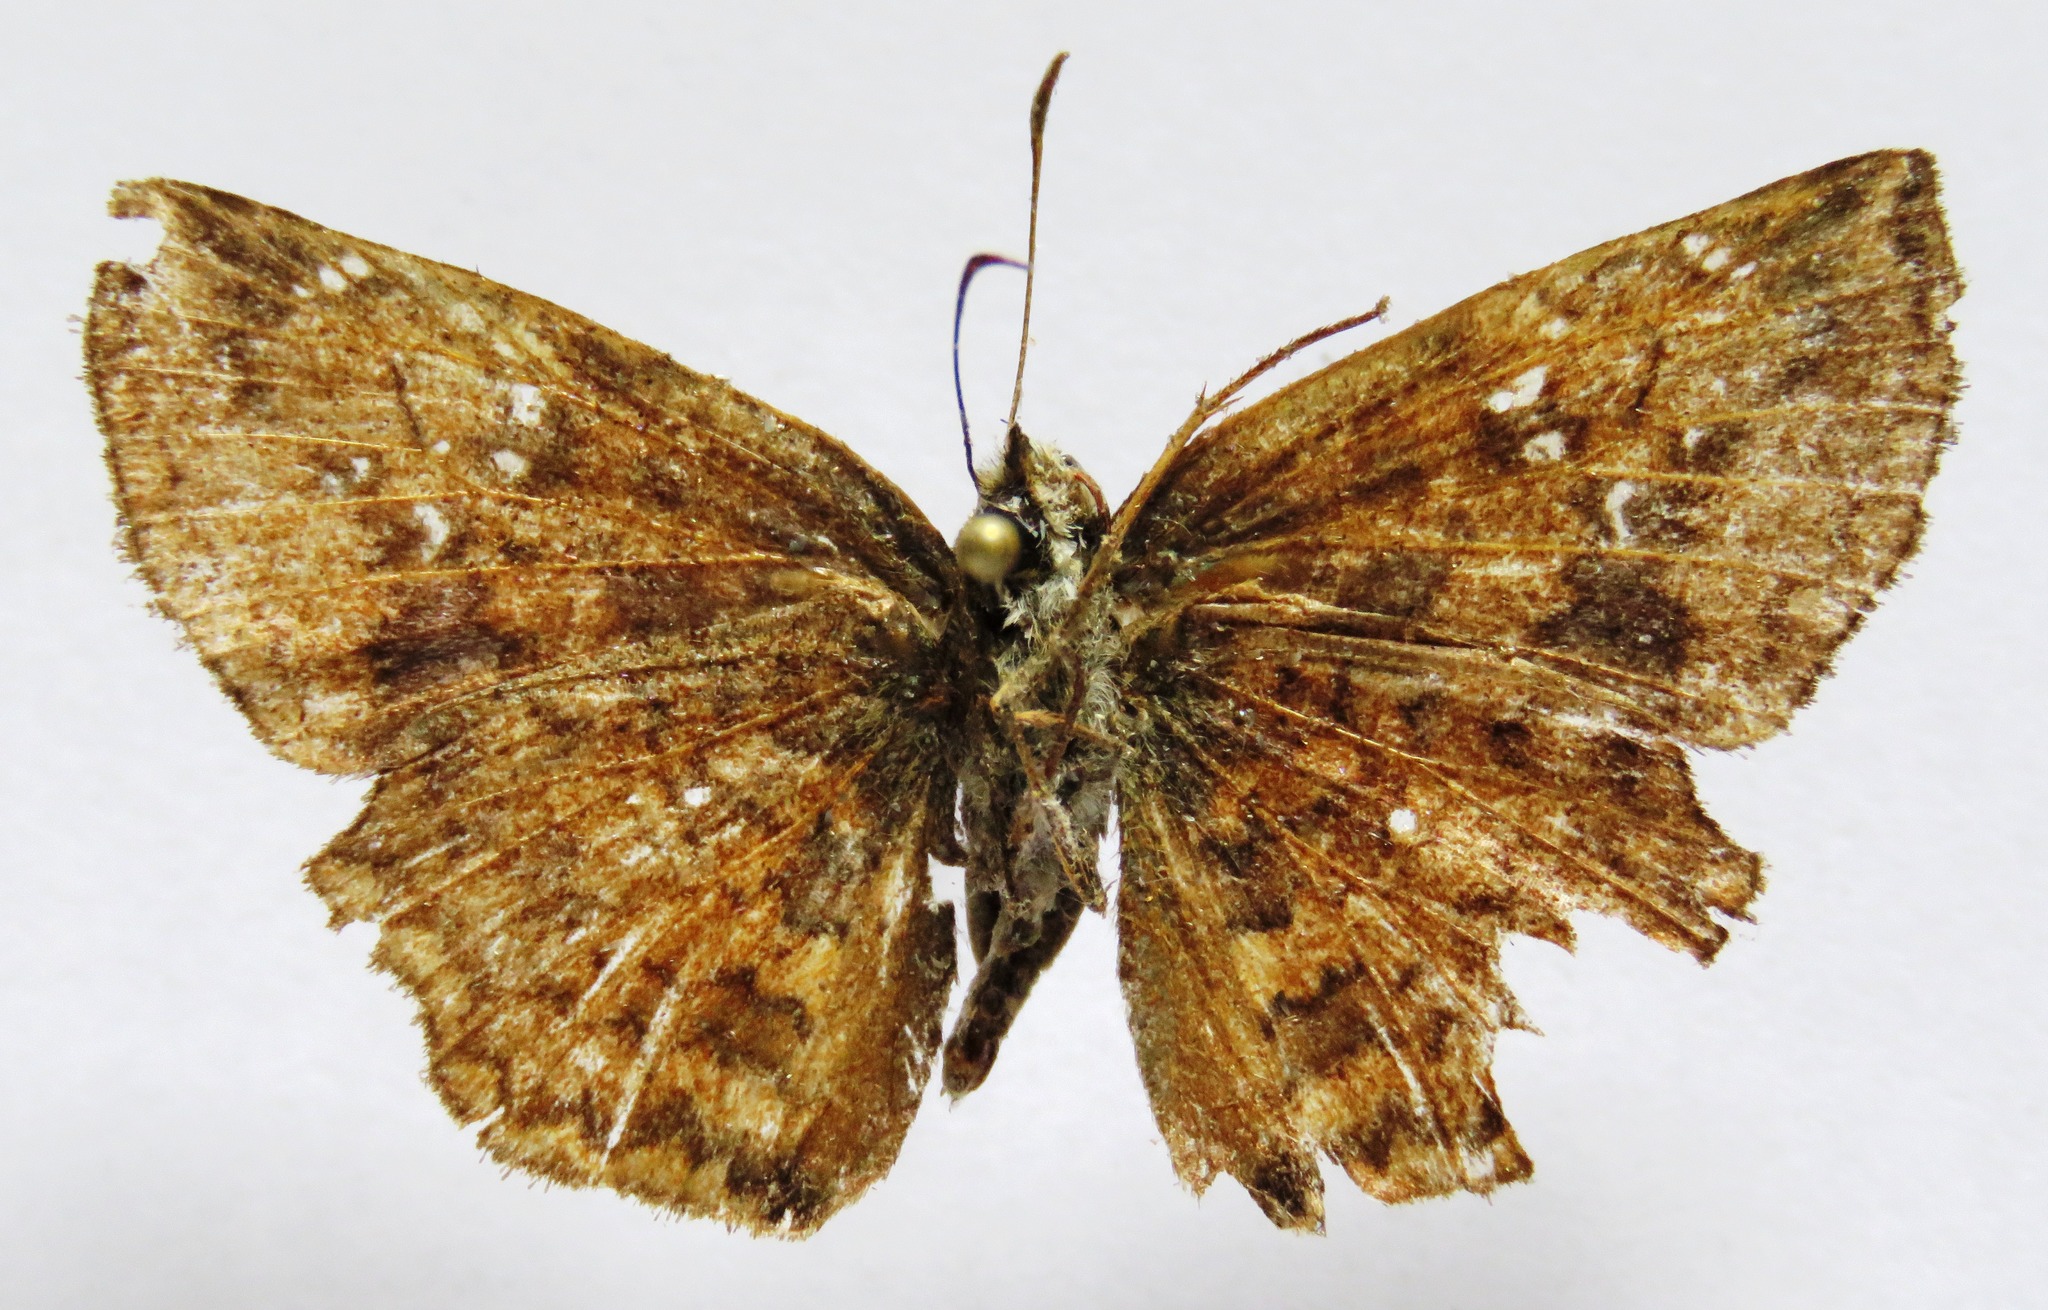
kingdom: Animalia
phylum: Arthropoda
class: Insecta
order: Lepidoptera
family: Hesperiidae
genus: Antigonus
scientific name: Antigonus erosus
